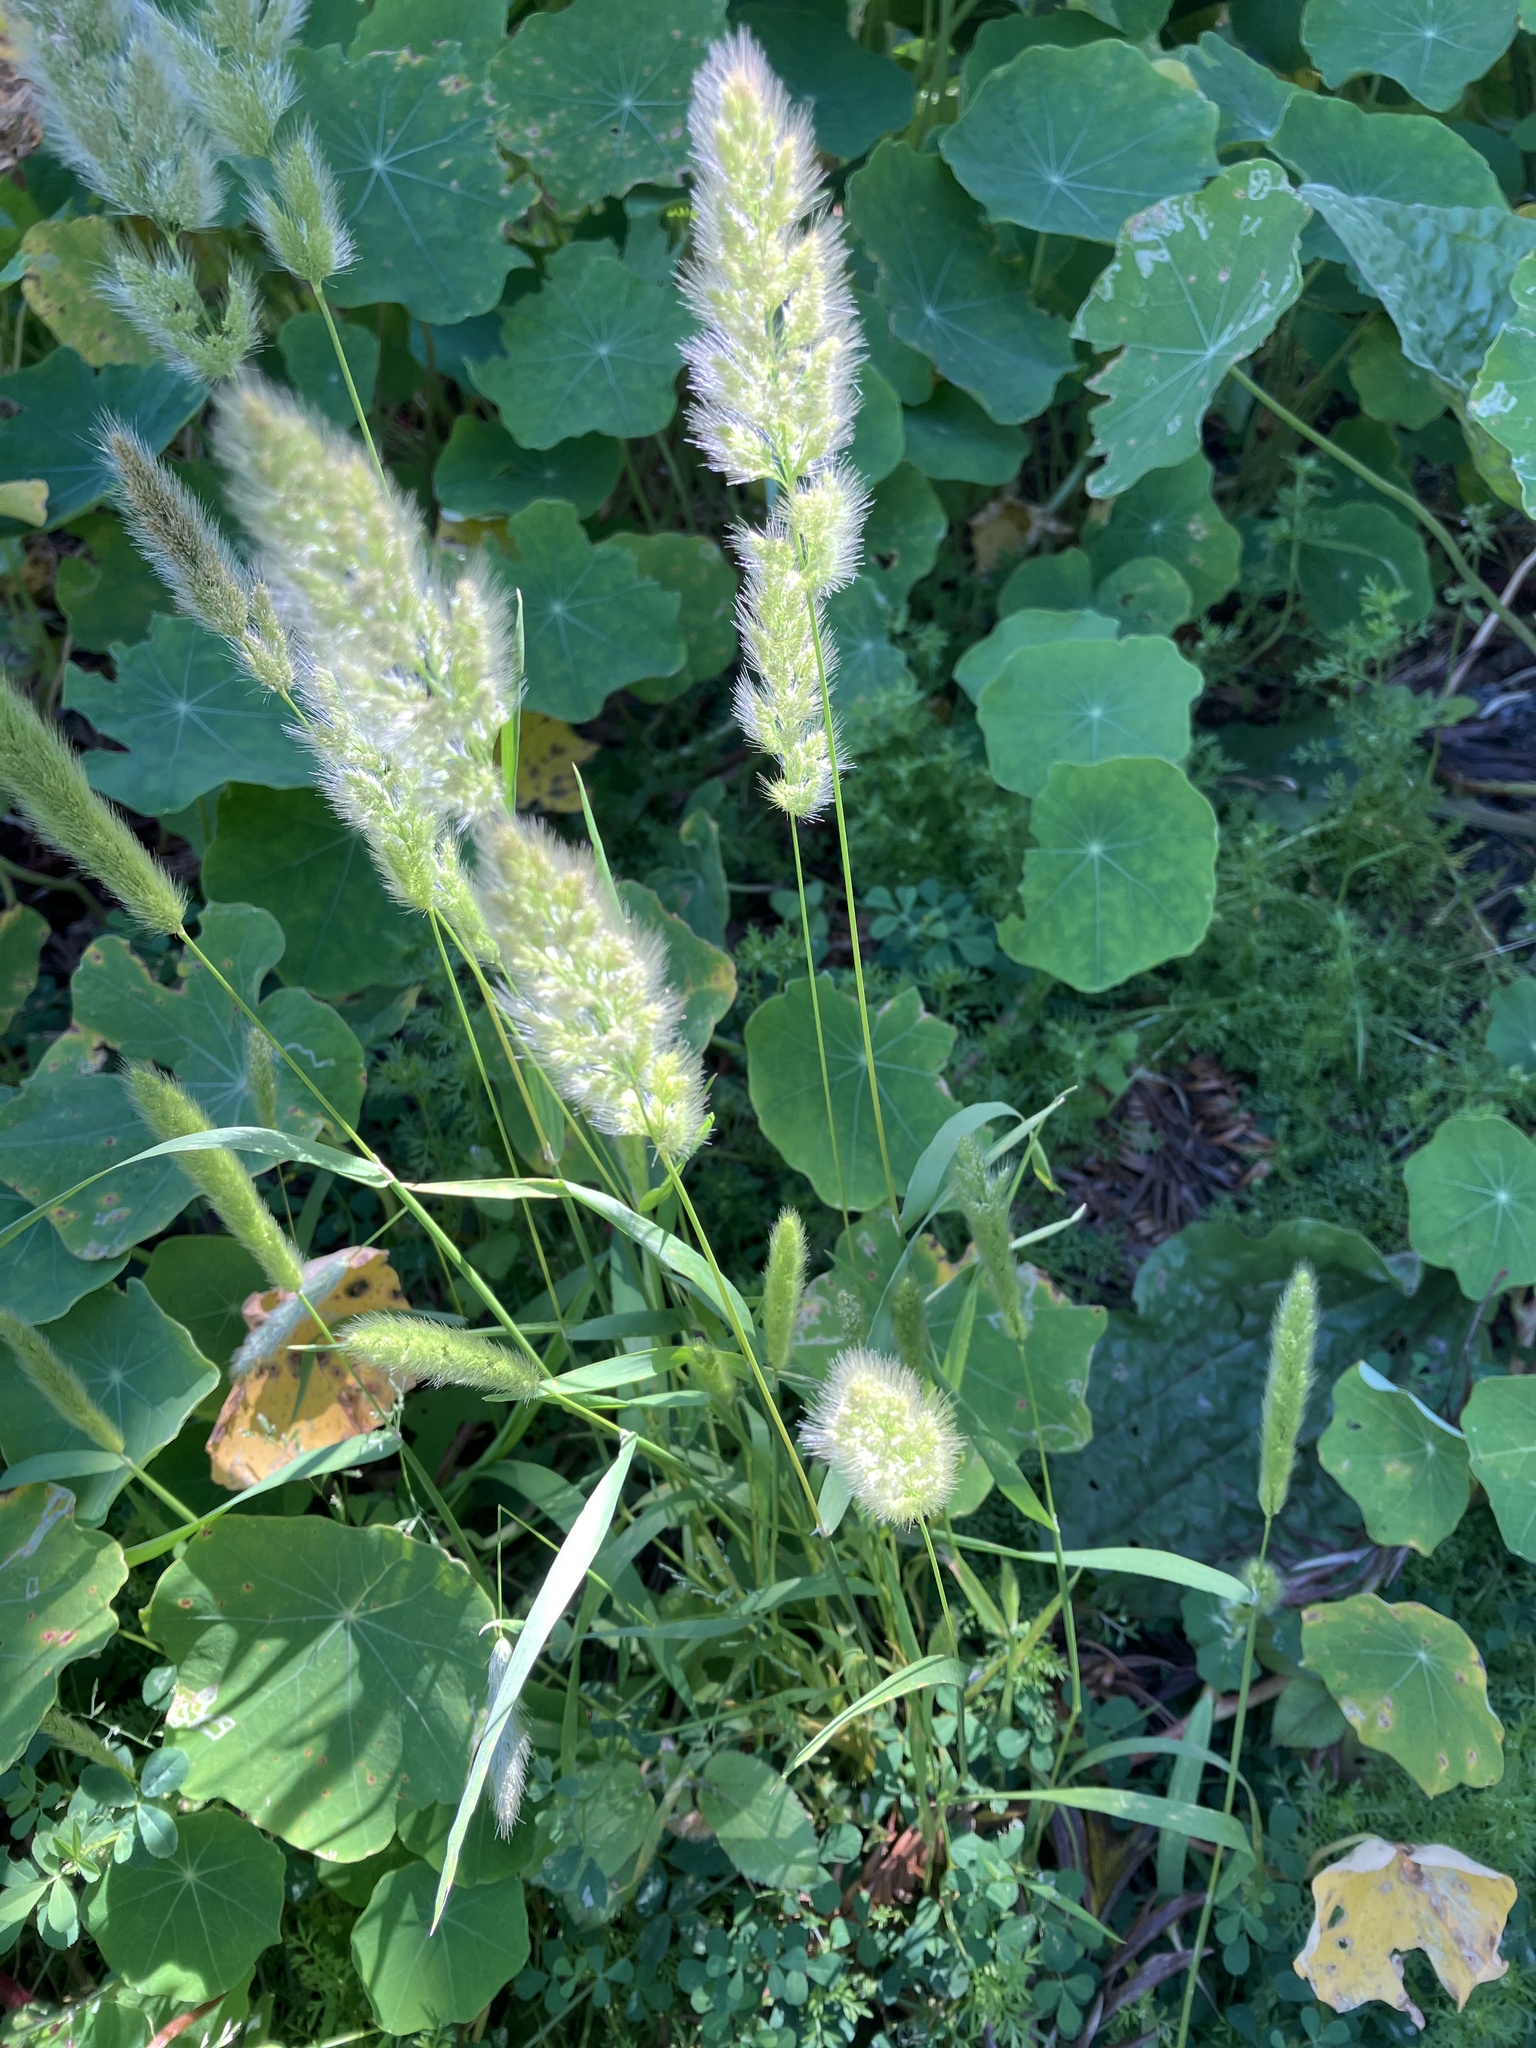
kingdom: Plantae
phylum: Tracheophyta
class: Liliopsida
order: Poales
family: Poaceae
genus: Polypogon
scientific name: Polypogon monspeliensis
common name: Annual rabbitsfoot grass
